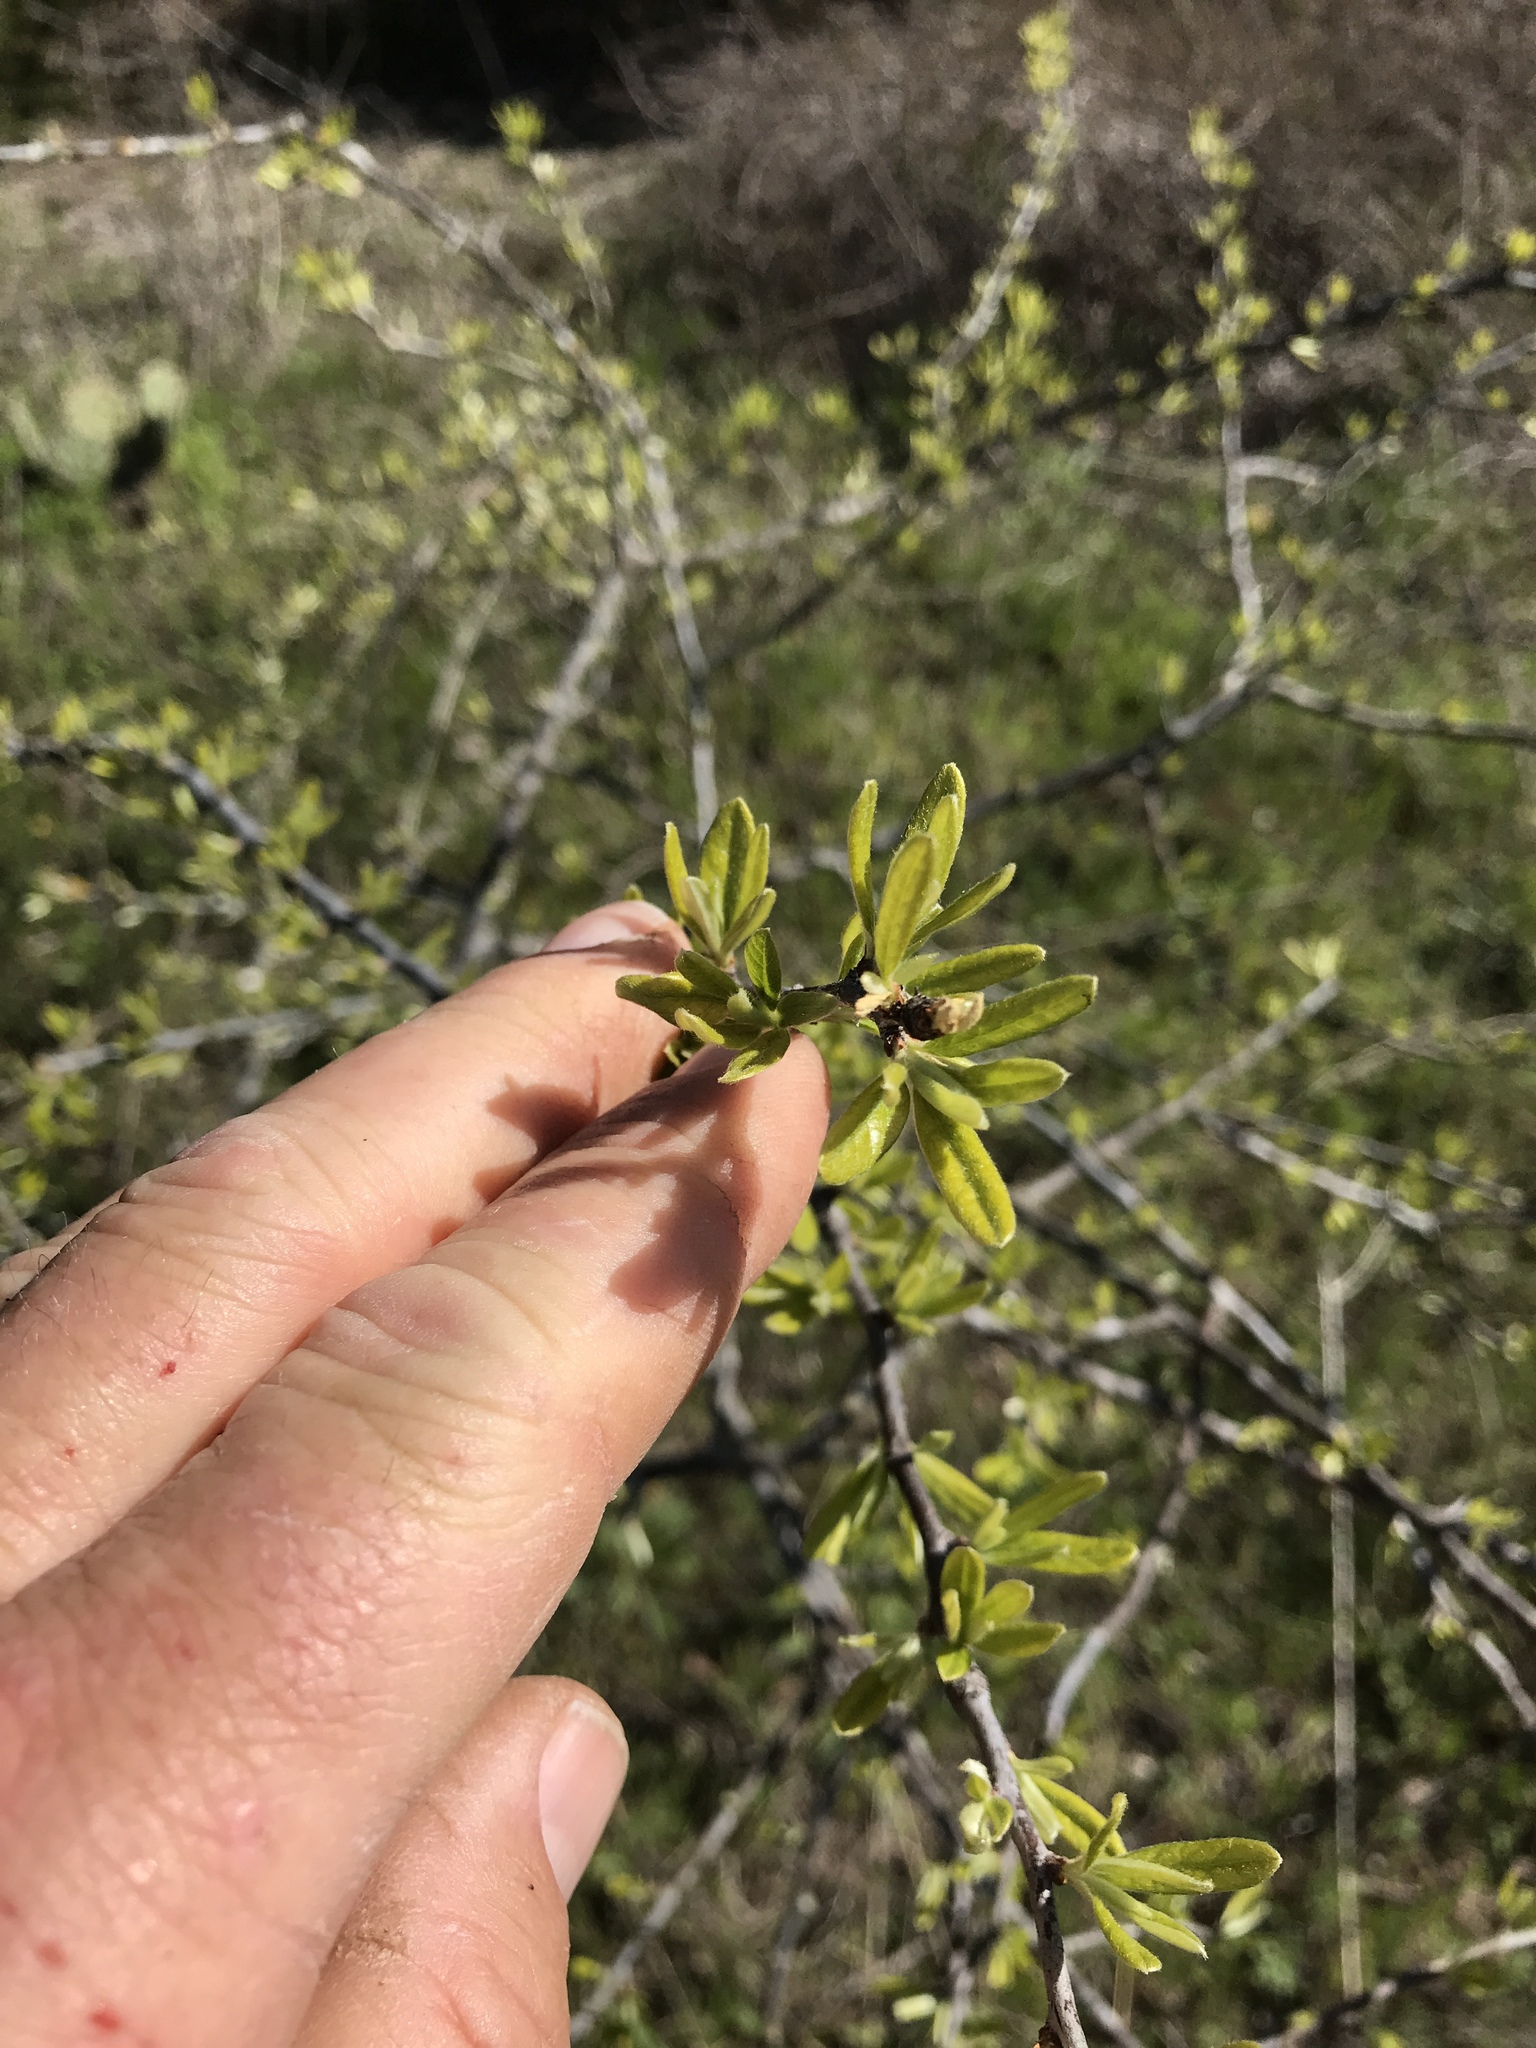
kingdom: Plantae
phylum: Tracheophyta
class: Magnoliopsida
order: Ericales
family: Sapotaceae
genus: Sideroxylon
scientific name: Sideroxylon lanuginosum
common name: Chittamwood
